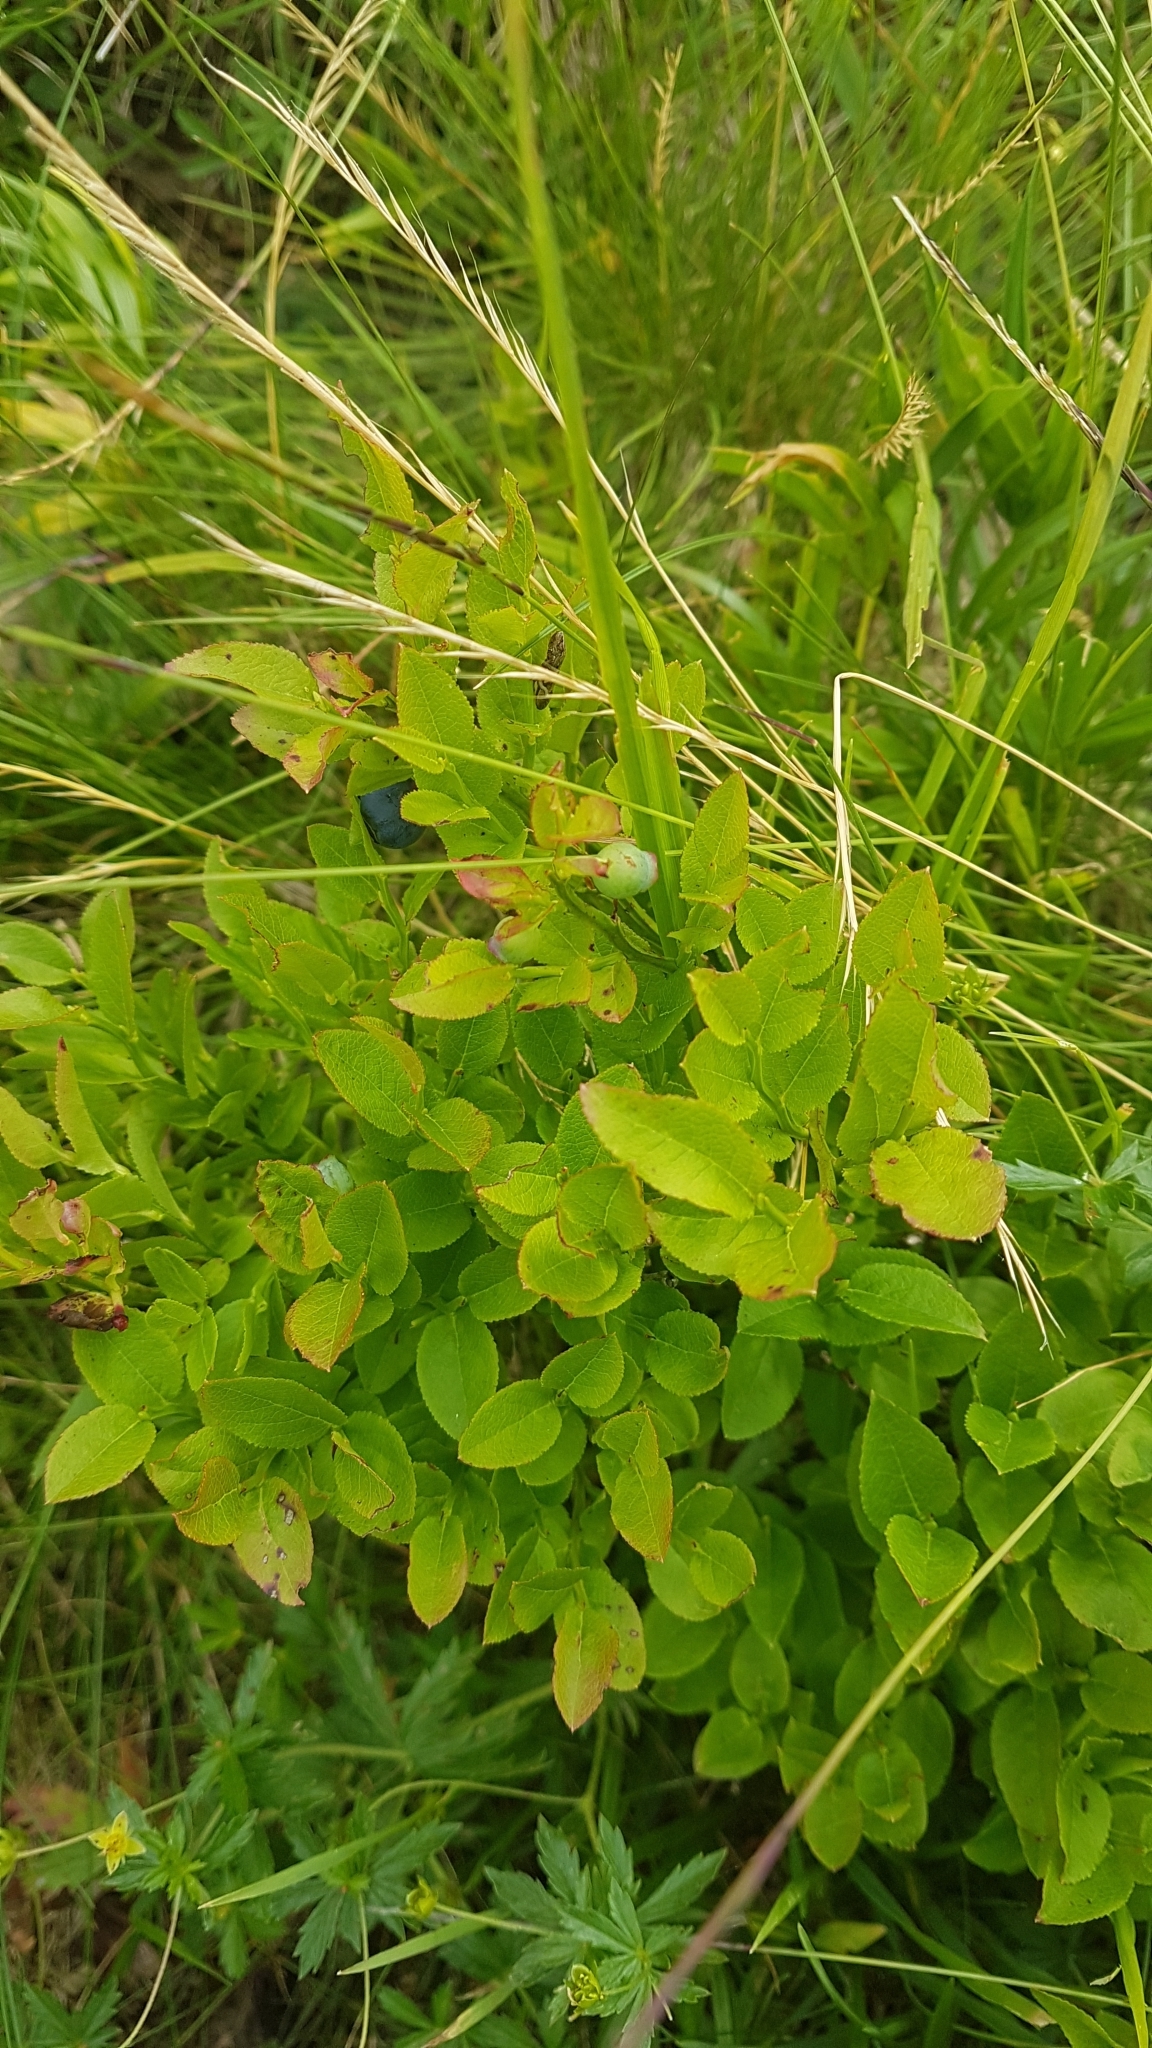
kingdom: Plantae
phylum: Tracheophyta
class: Magnoliopsida
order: Ericales
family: Ericaceae
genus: Vaccinium
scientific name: Vaccinium myrtillus
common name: Bilberry
